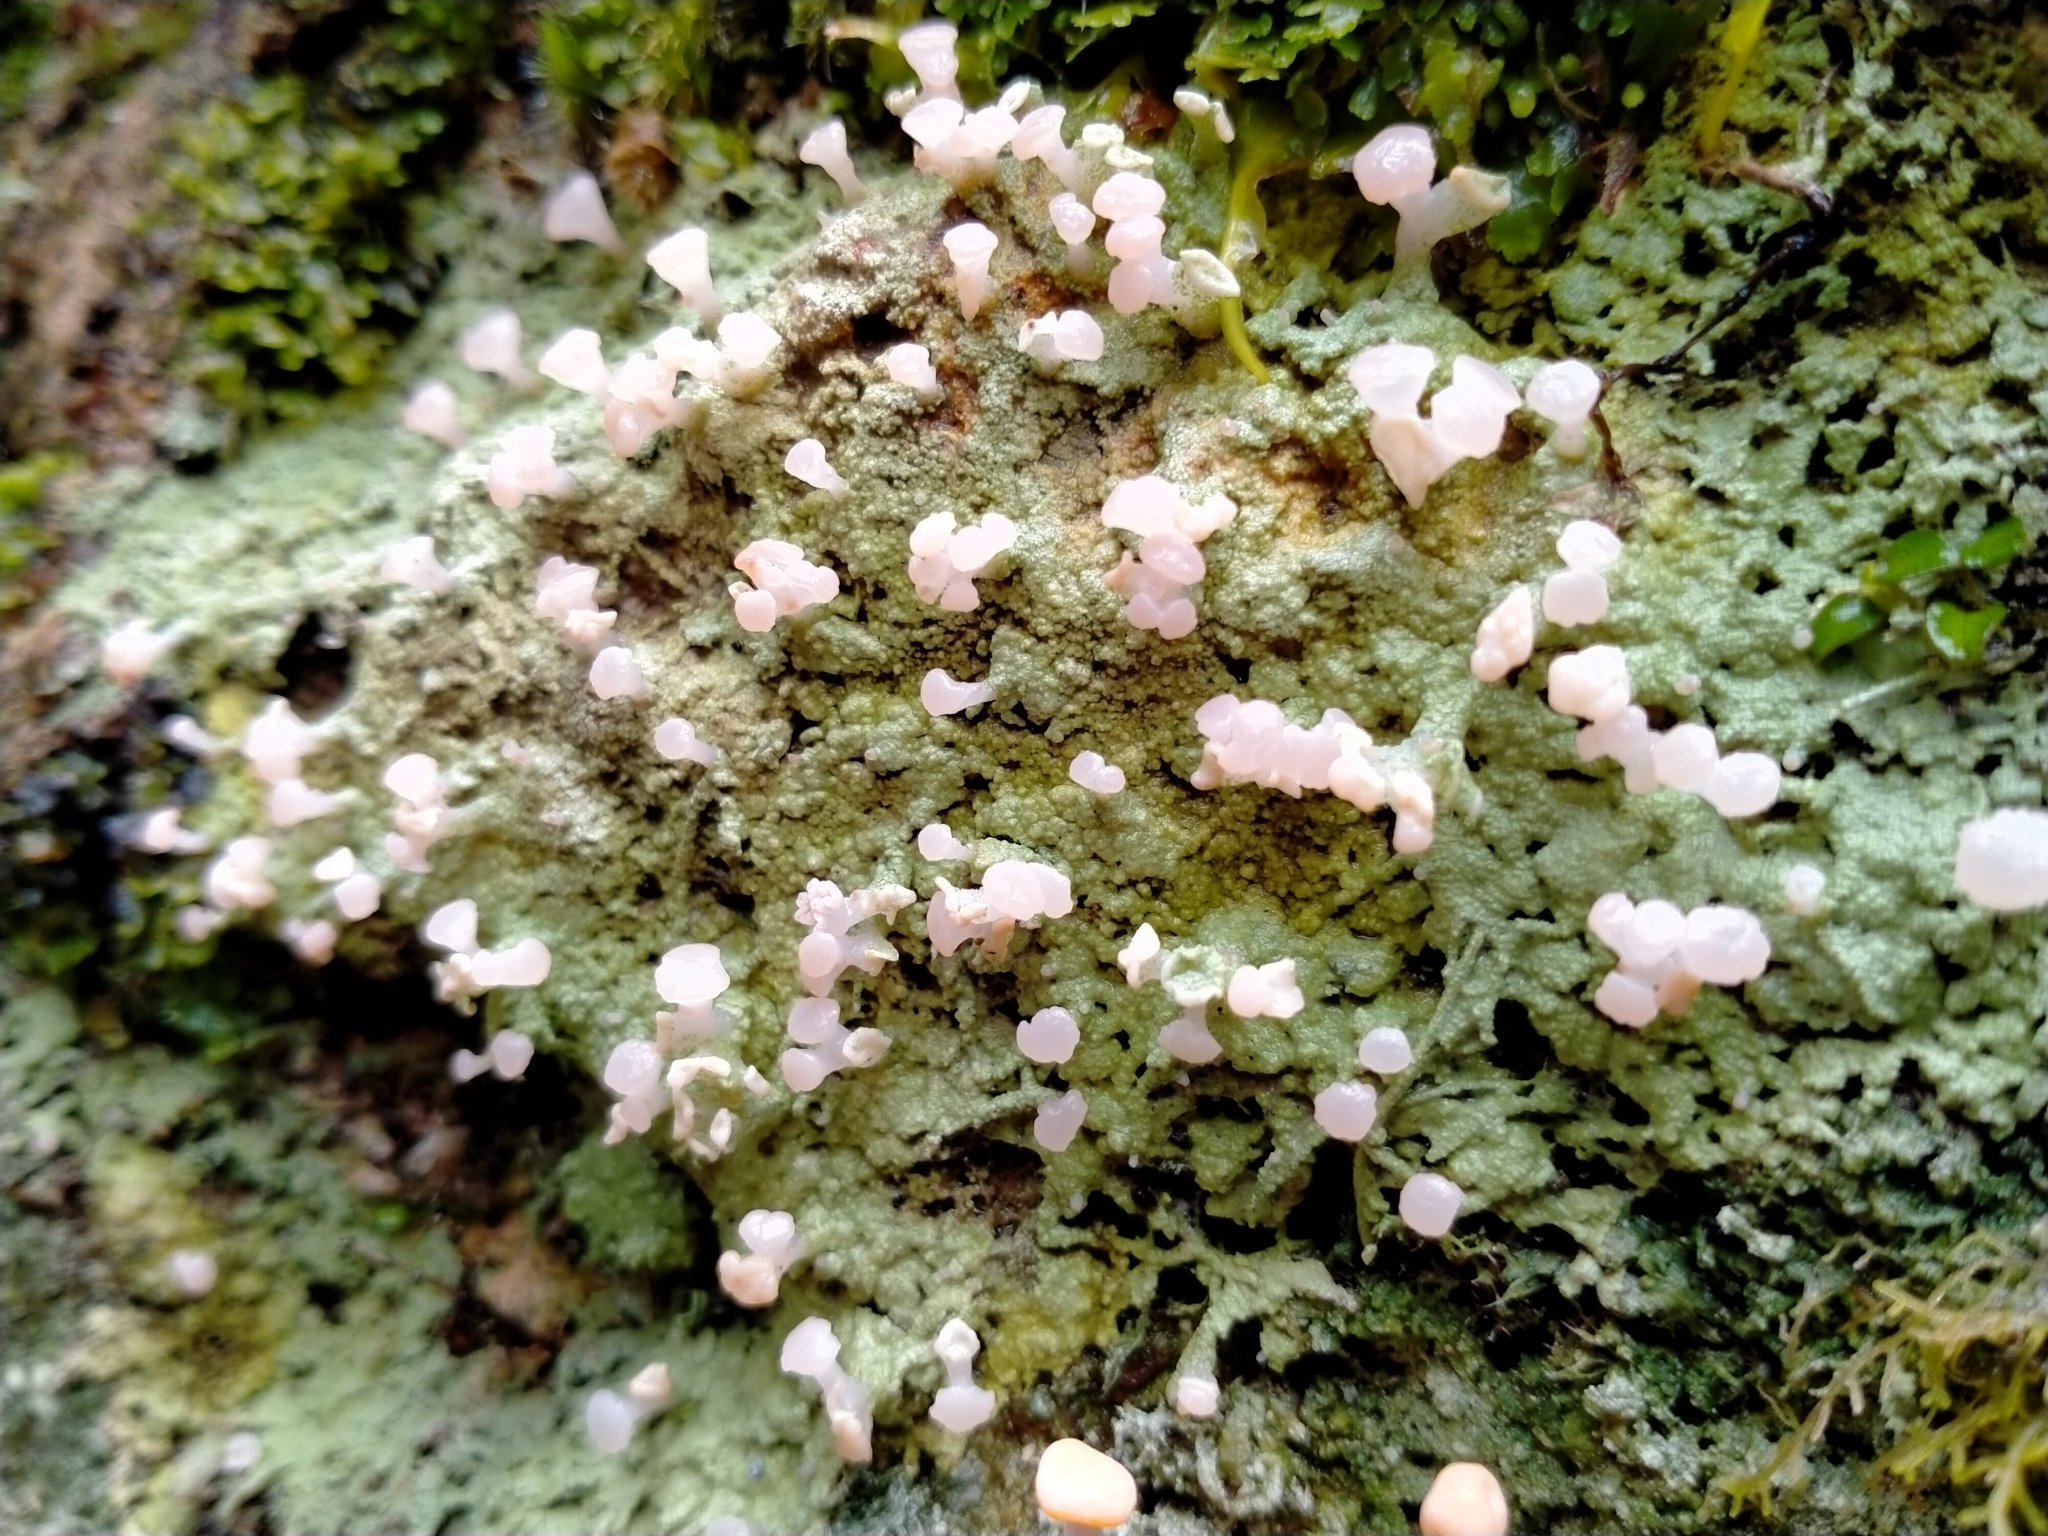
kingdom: Fungi
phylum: Ascomycota
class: Lecanoromycetes
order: Baeomycetales
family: Baeomycetaceae
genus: Baeomyces
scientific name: Baeomyces heteromorphus
